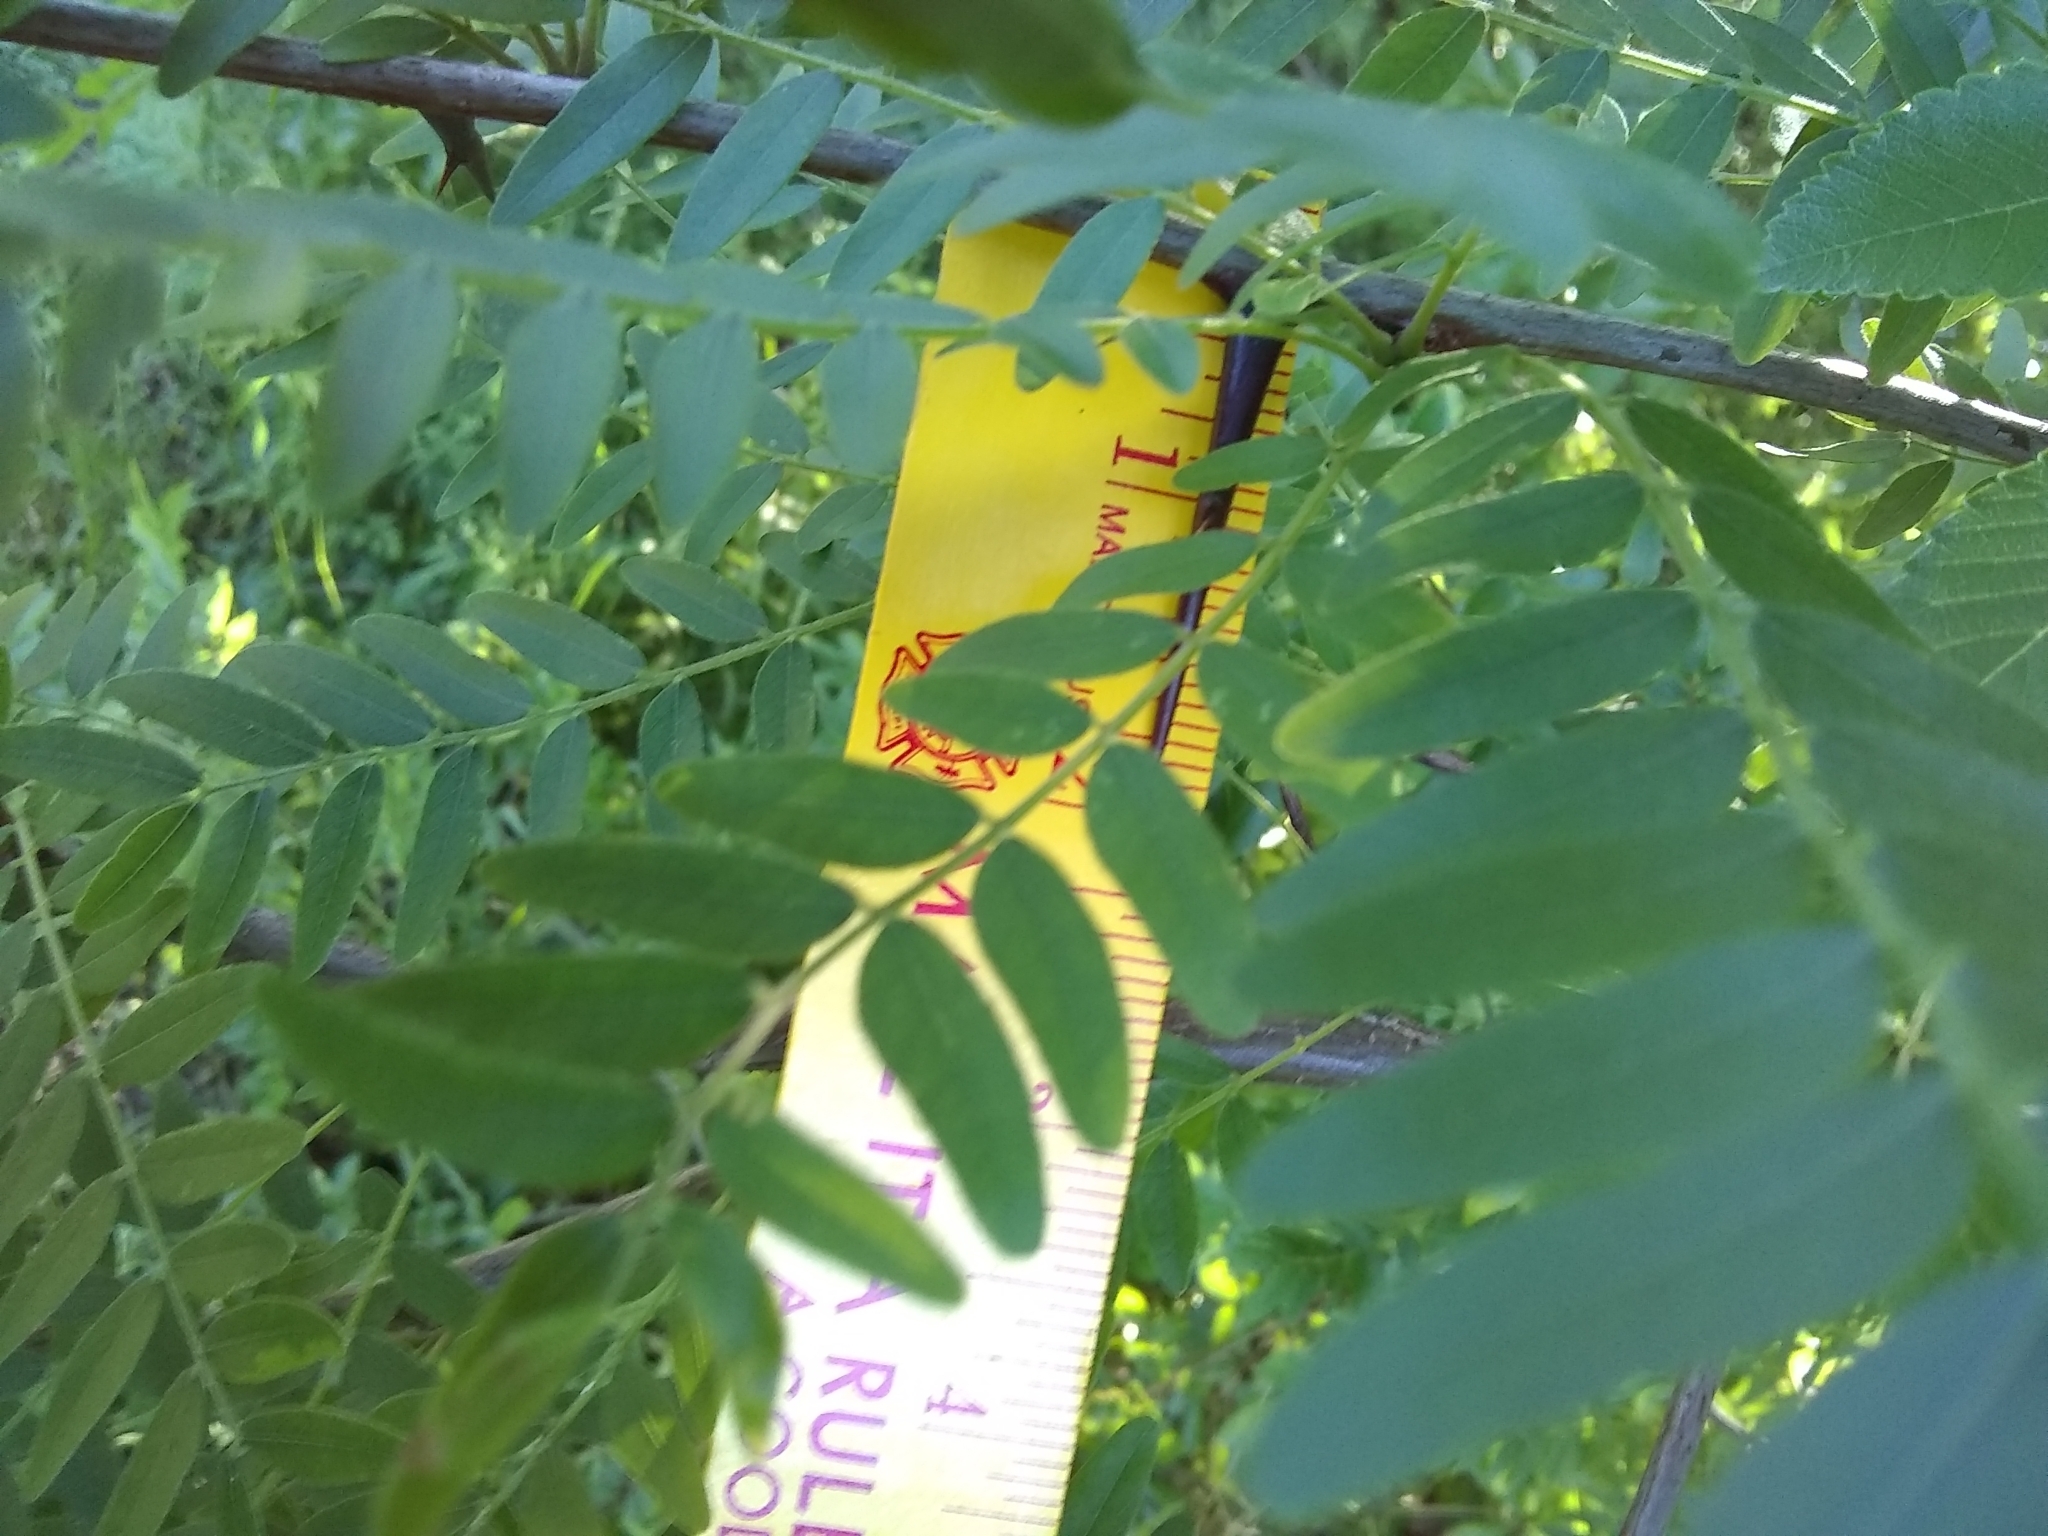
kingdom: Plantae
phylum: Tracheophyta
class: Magnoliopsida
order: Fabales
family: Fabaceae
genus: Gleditsia
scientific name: Gleditsia triacanthos
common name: Common honeylocust
